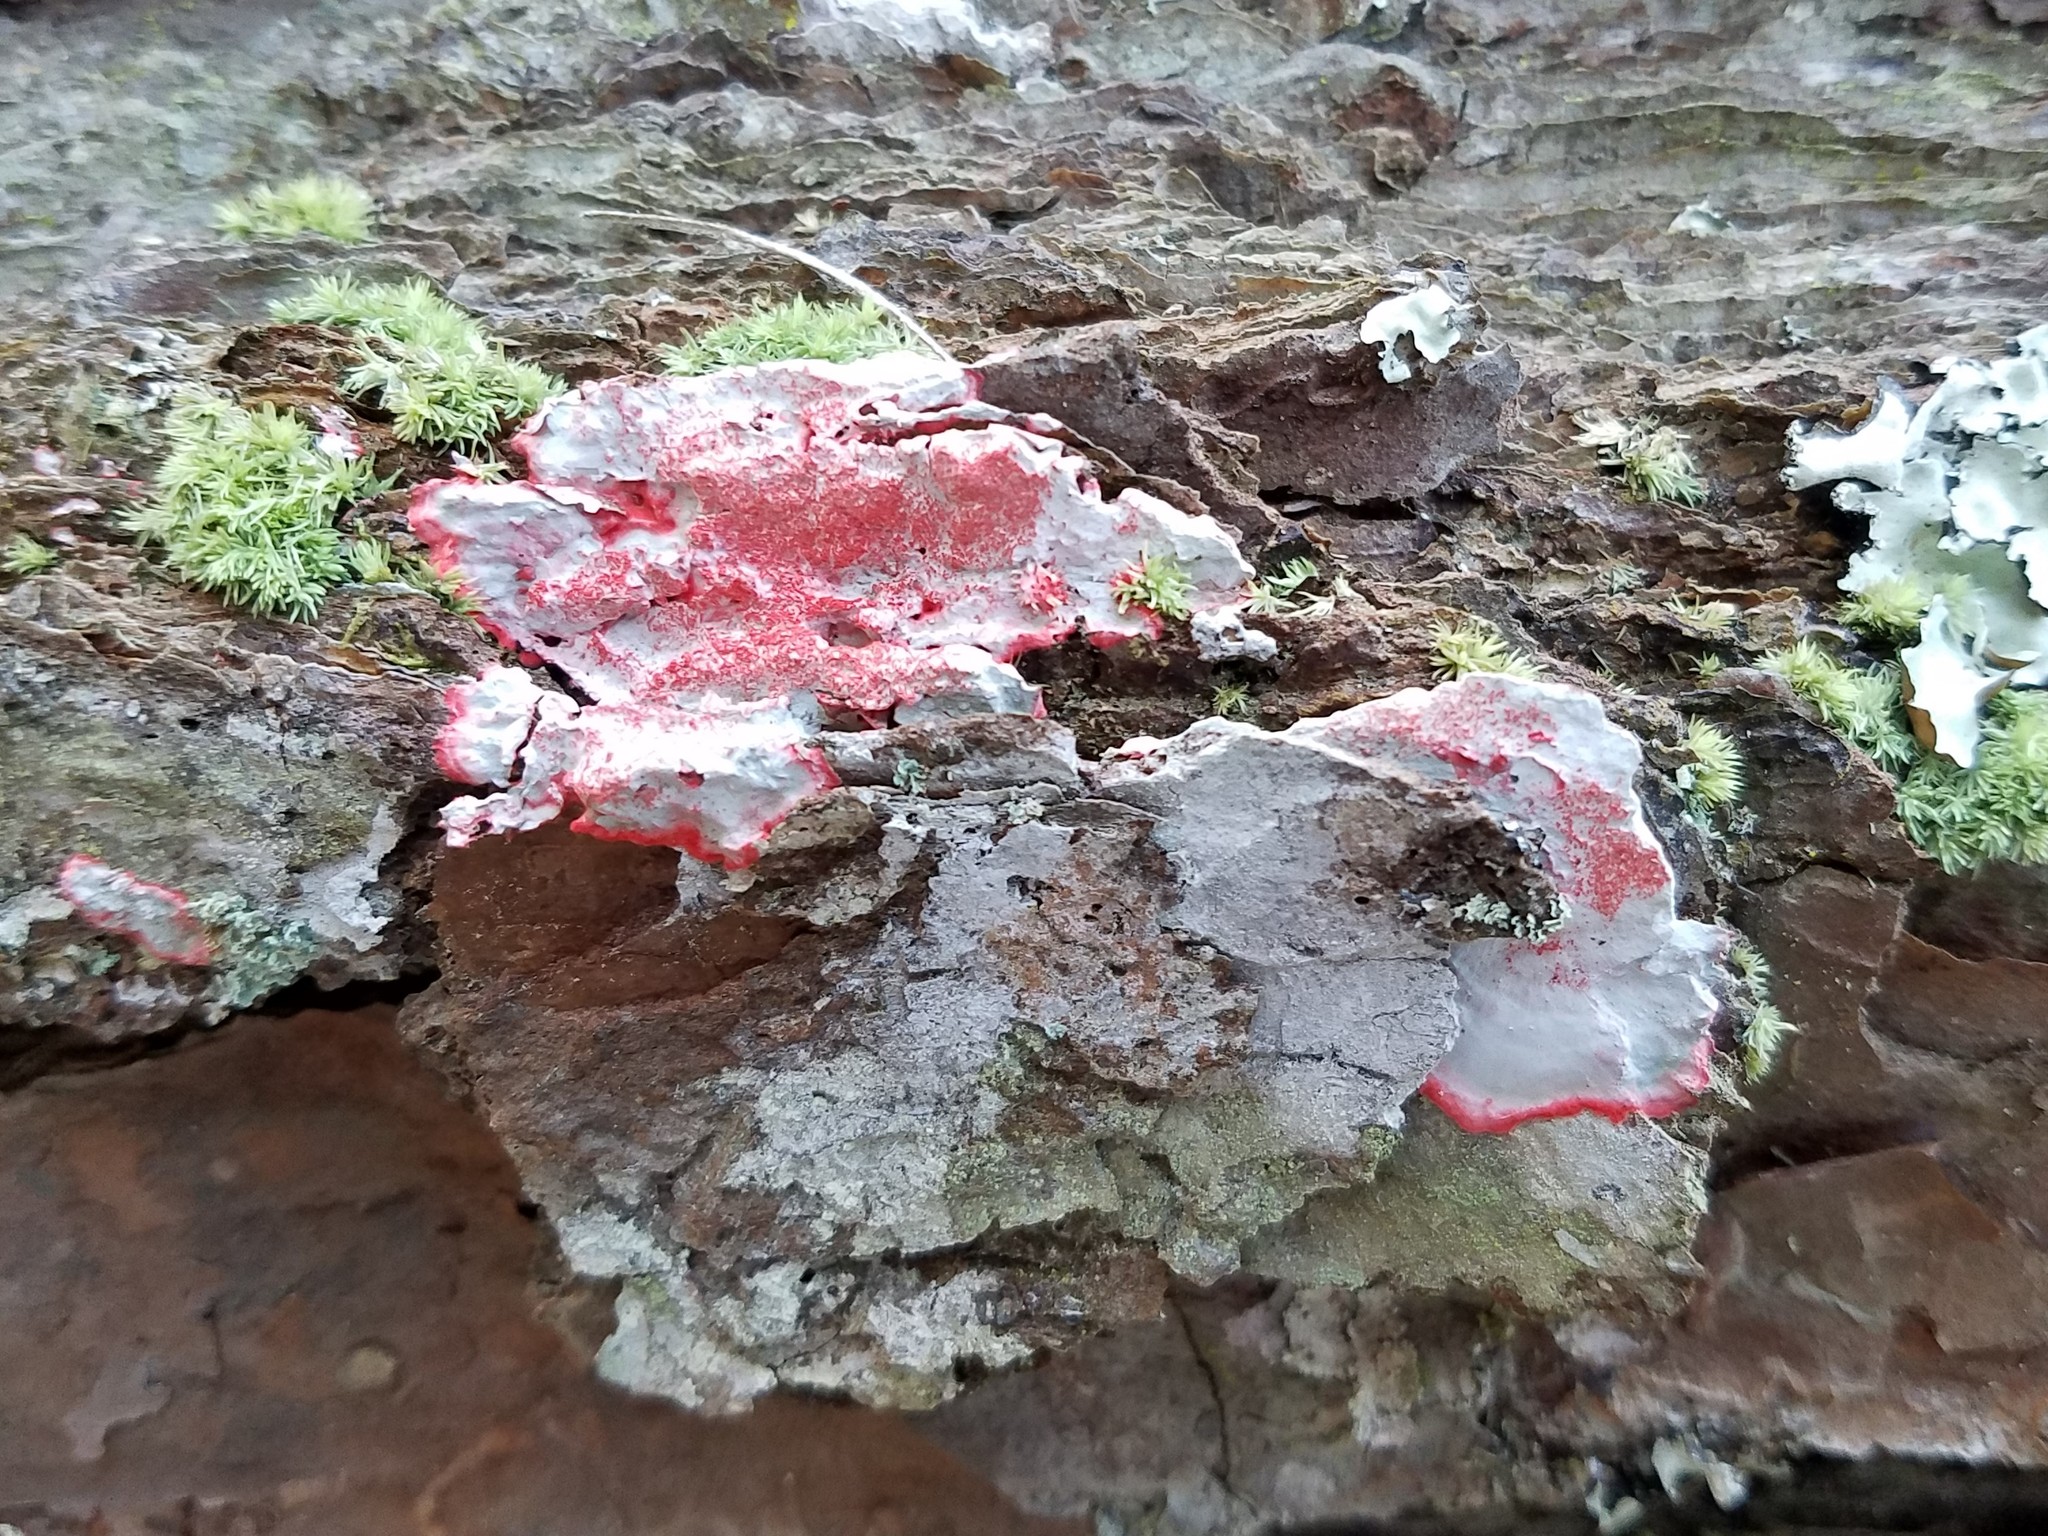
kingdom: Fungi
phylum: Ascomycota
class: Arthoniomycetes
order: Arthoniales
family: Arthoniaceae
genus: Herpothallon
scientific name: Herpothallon rubrocinctum
